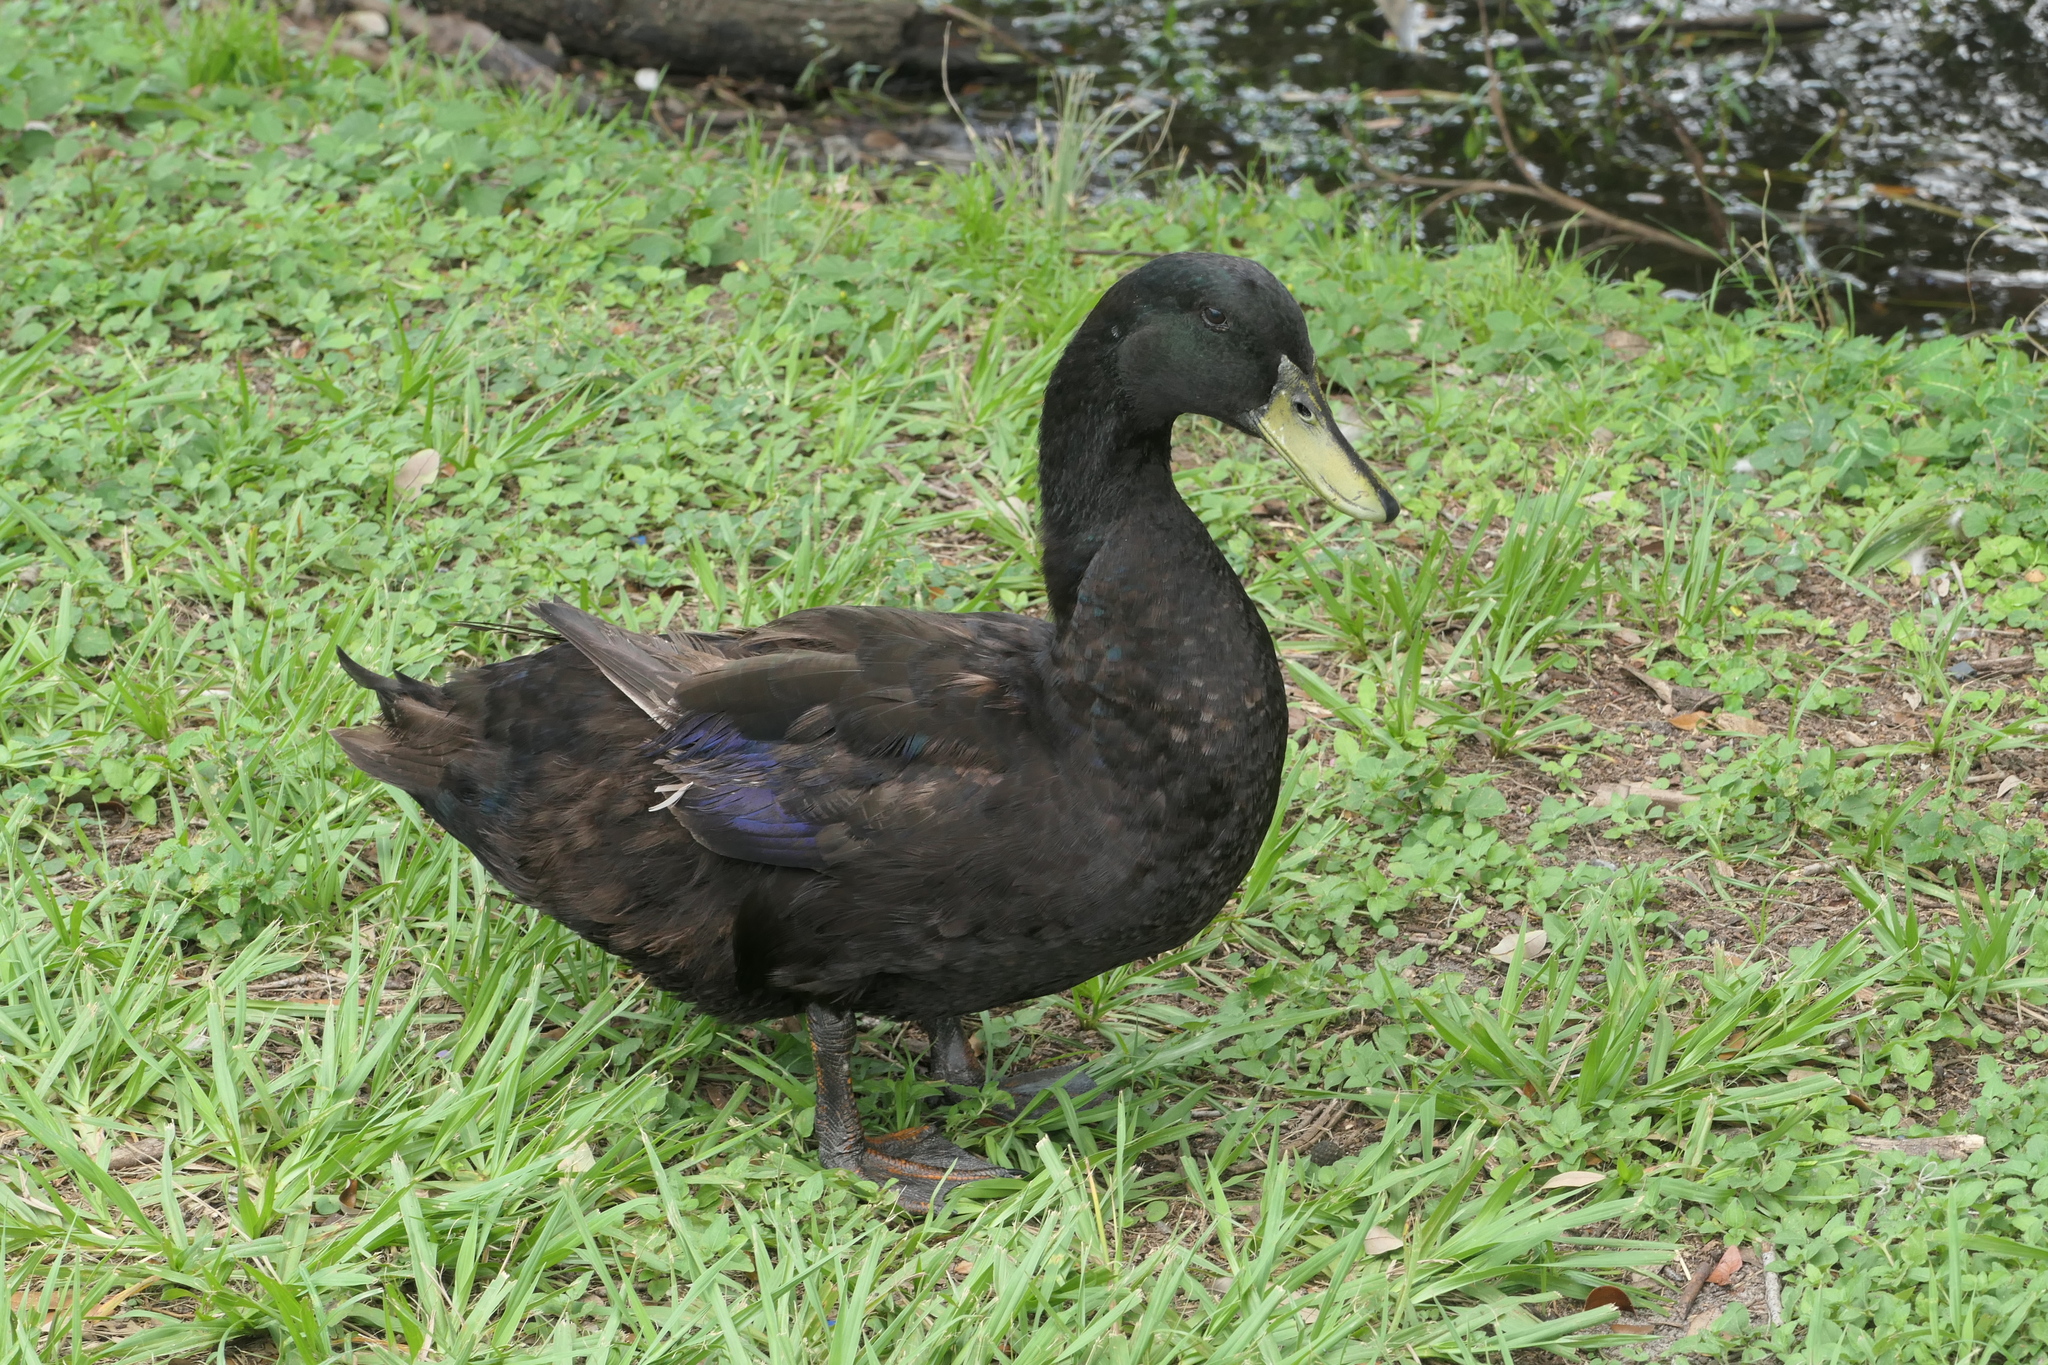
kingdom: Animalia
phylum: Chordata
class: Aves
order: Anseriformes
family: Anatidae
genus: Anas
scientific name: Anas platyrhynchos
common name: Mallard
